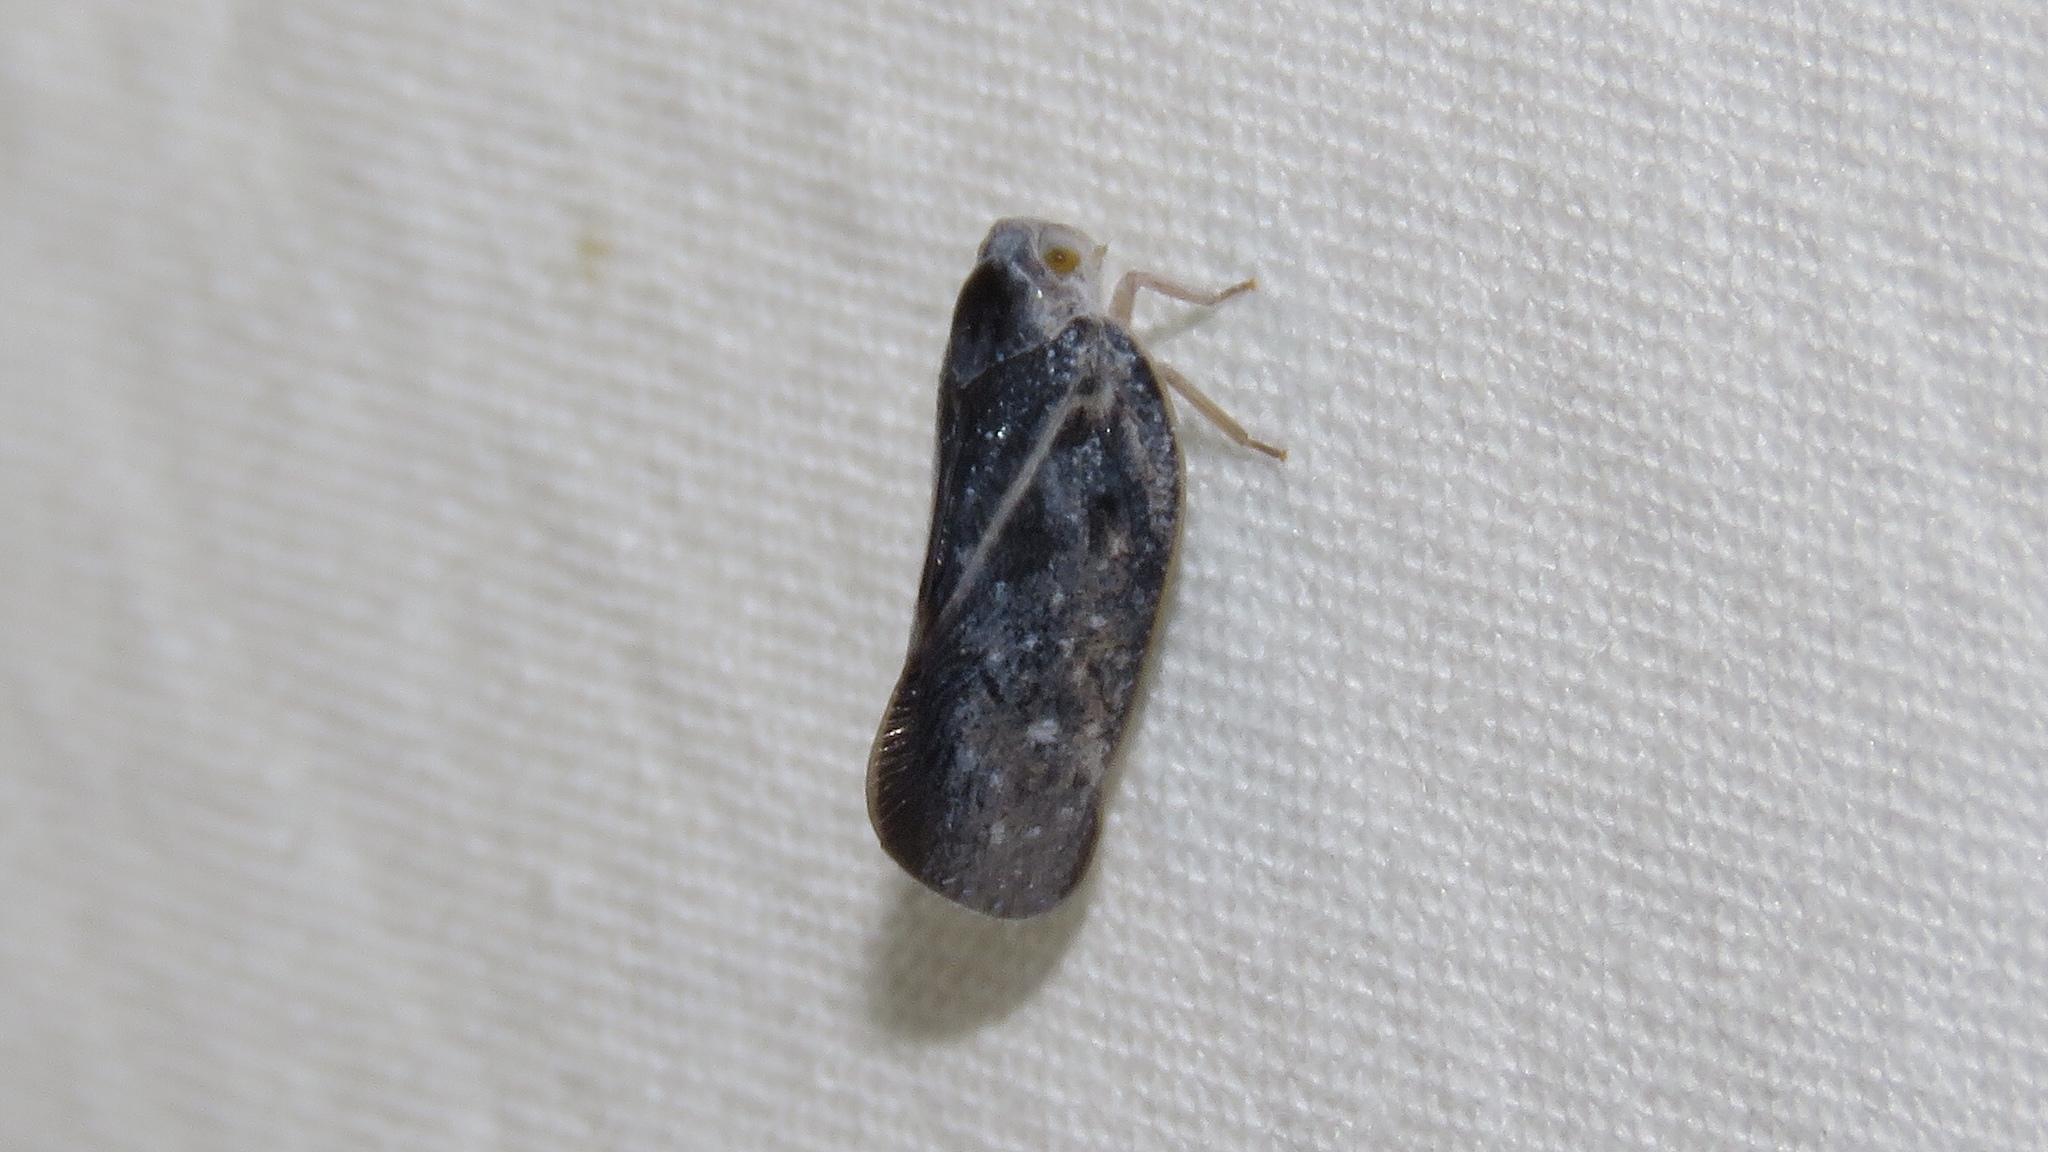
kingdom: Animalia
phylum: Arthropoda
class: Insecta
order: Hemiptera
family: Flatidae
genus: Metcalfa
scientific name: Metcalfa pruinosa
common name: Citrus flatid planthopper
